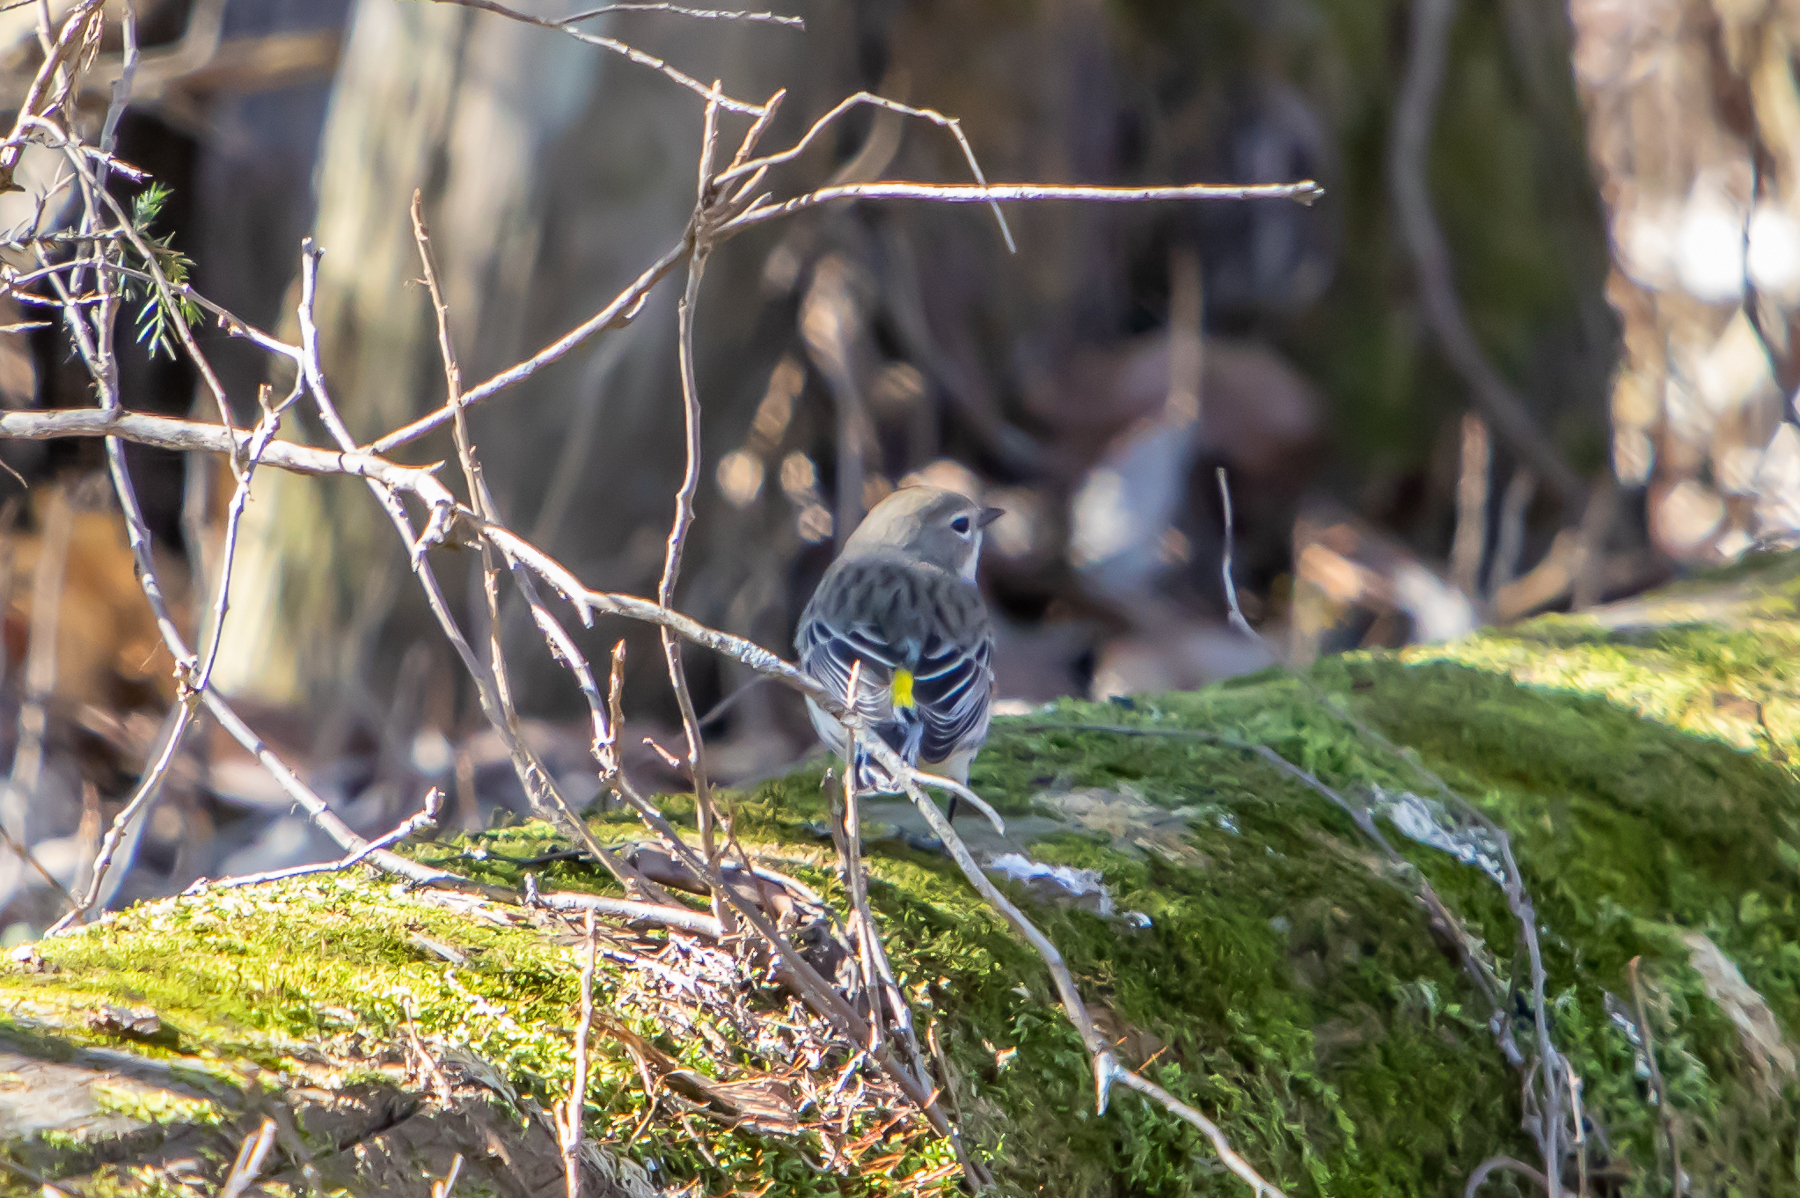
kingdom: Animalia
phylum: Chordata
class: Aves
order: Passeriformes
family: Parulidae
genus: Setophaga
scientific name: Setophaga coronata
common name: Myrtle warbler
